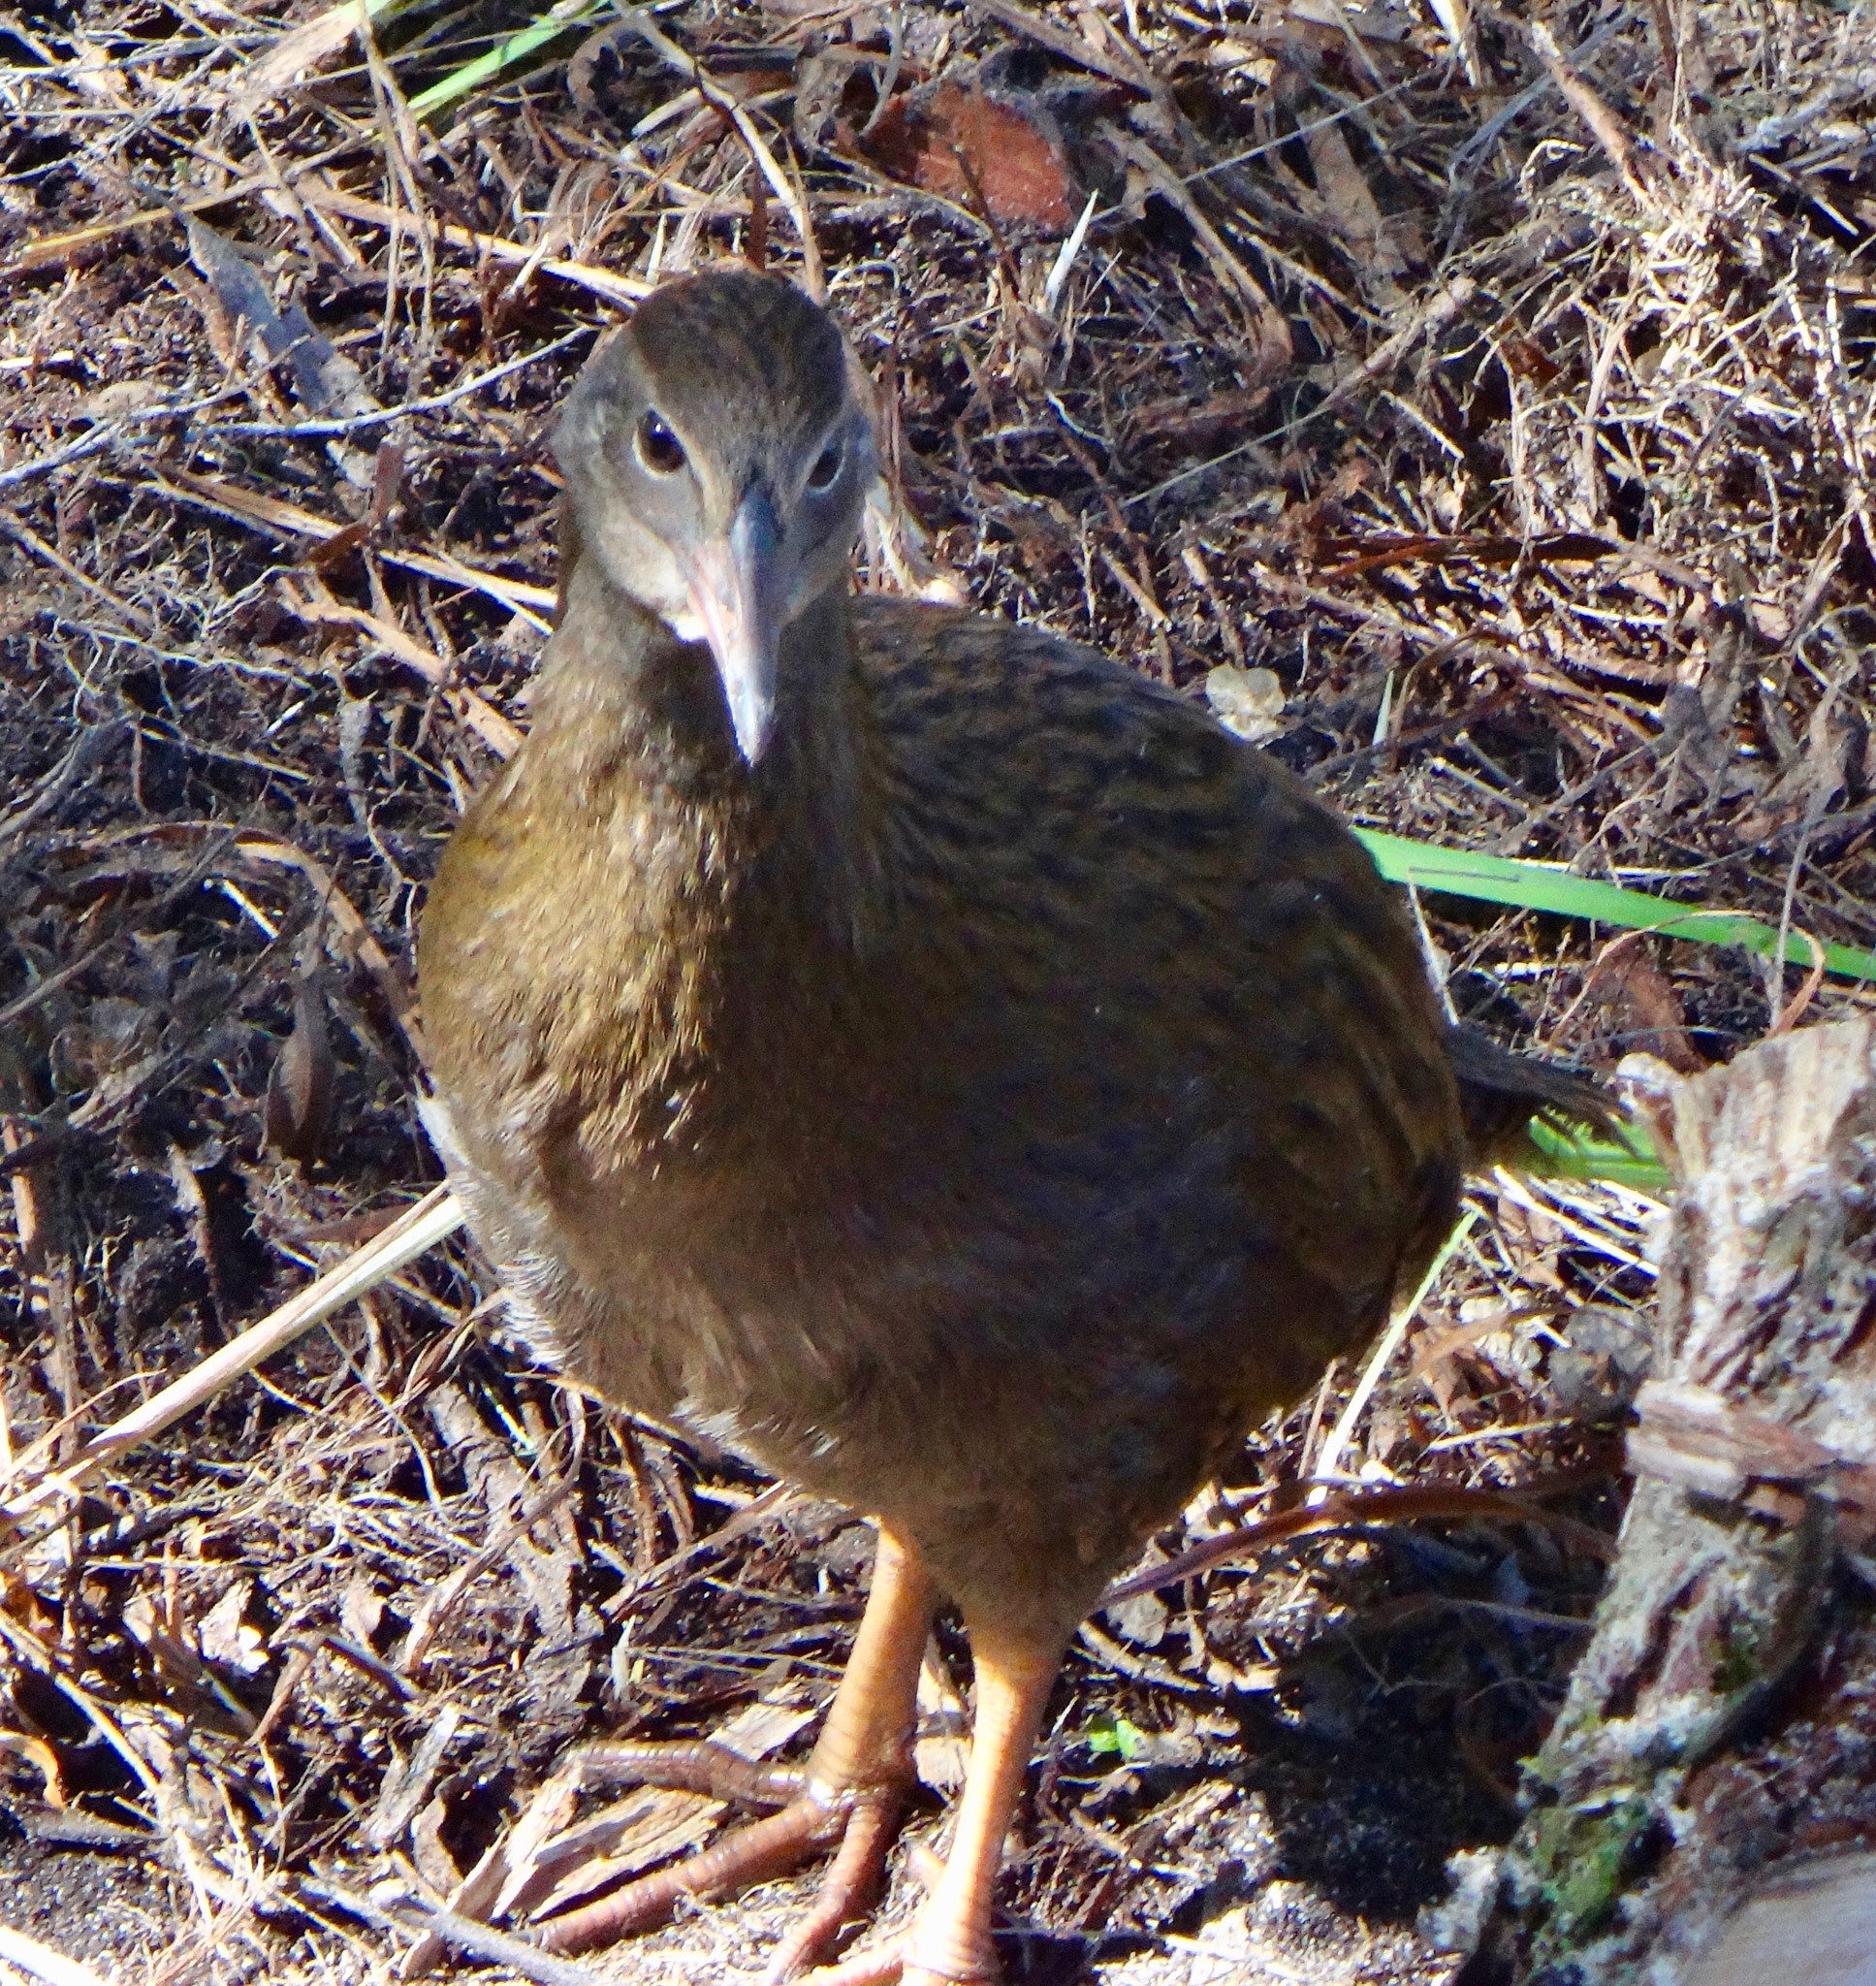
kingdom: Animalia
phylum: Chordata
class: Aves
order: Gruiformes
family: Rallidae
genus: Gallirallus
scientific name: Gallirallus australis
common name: Weka
